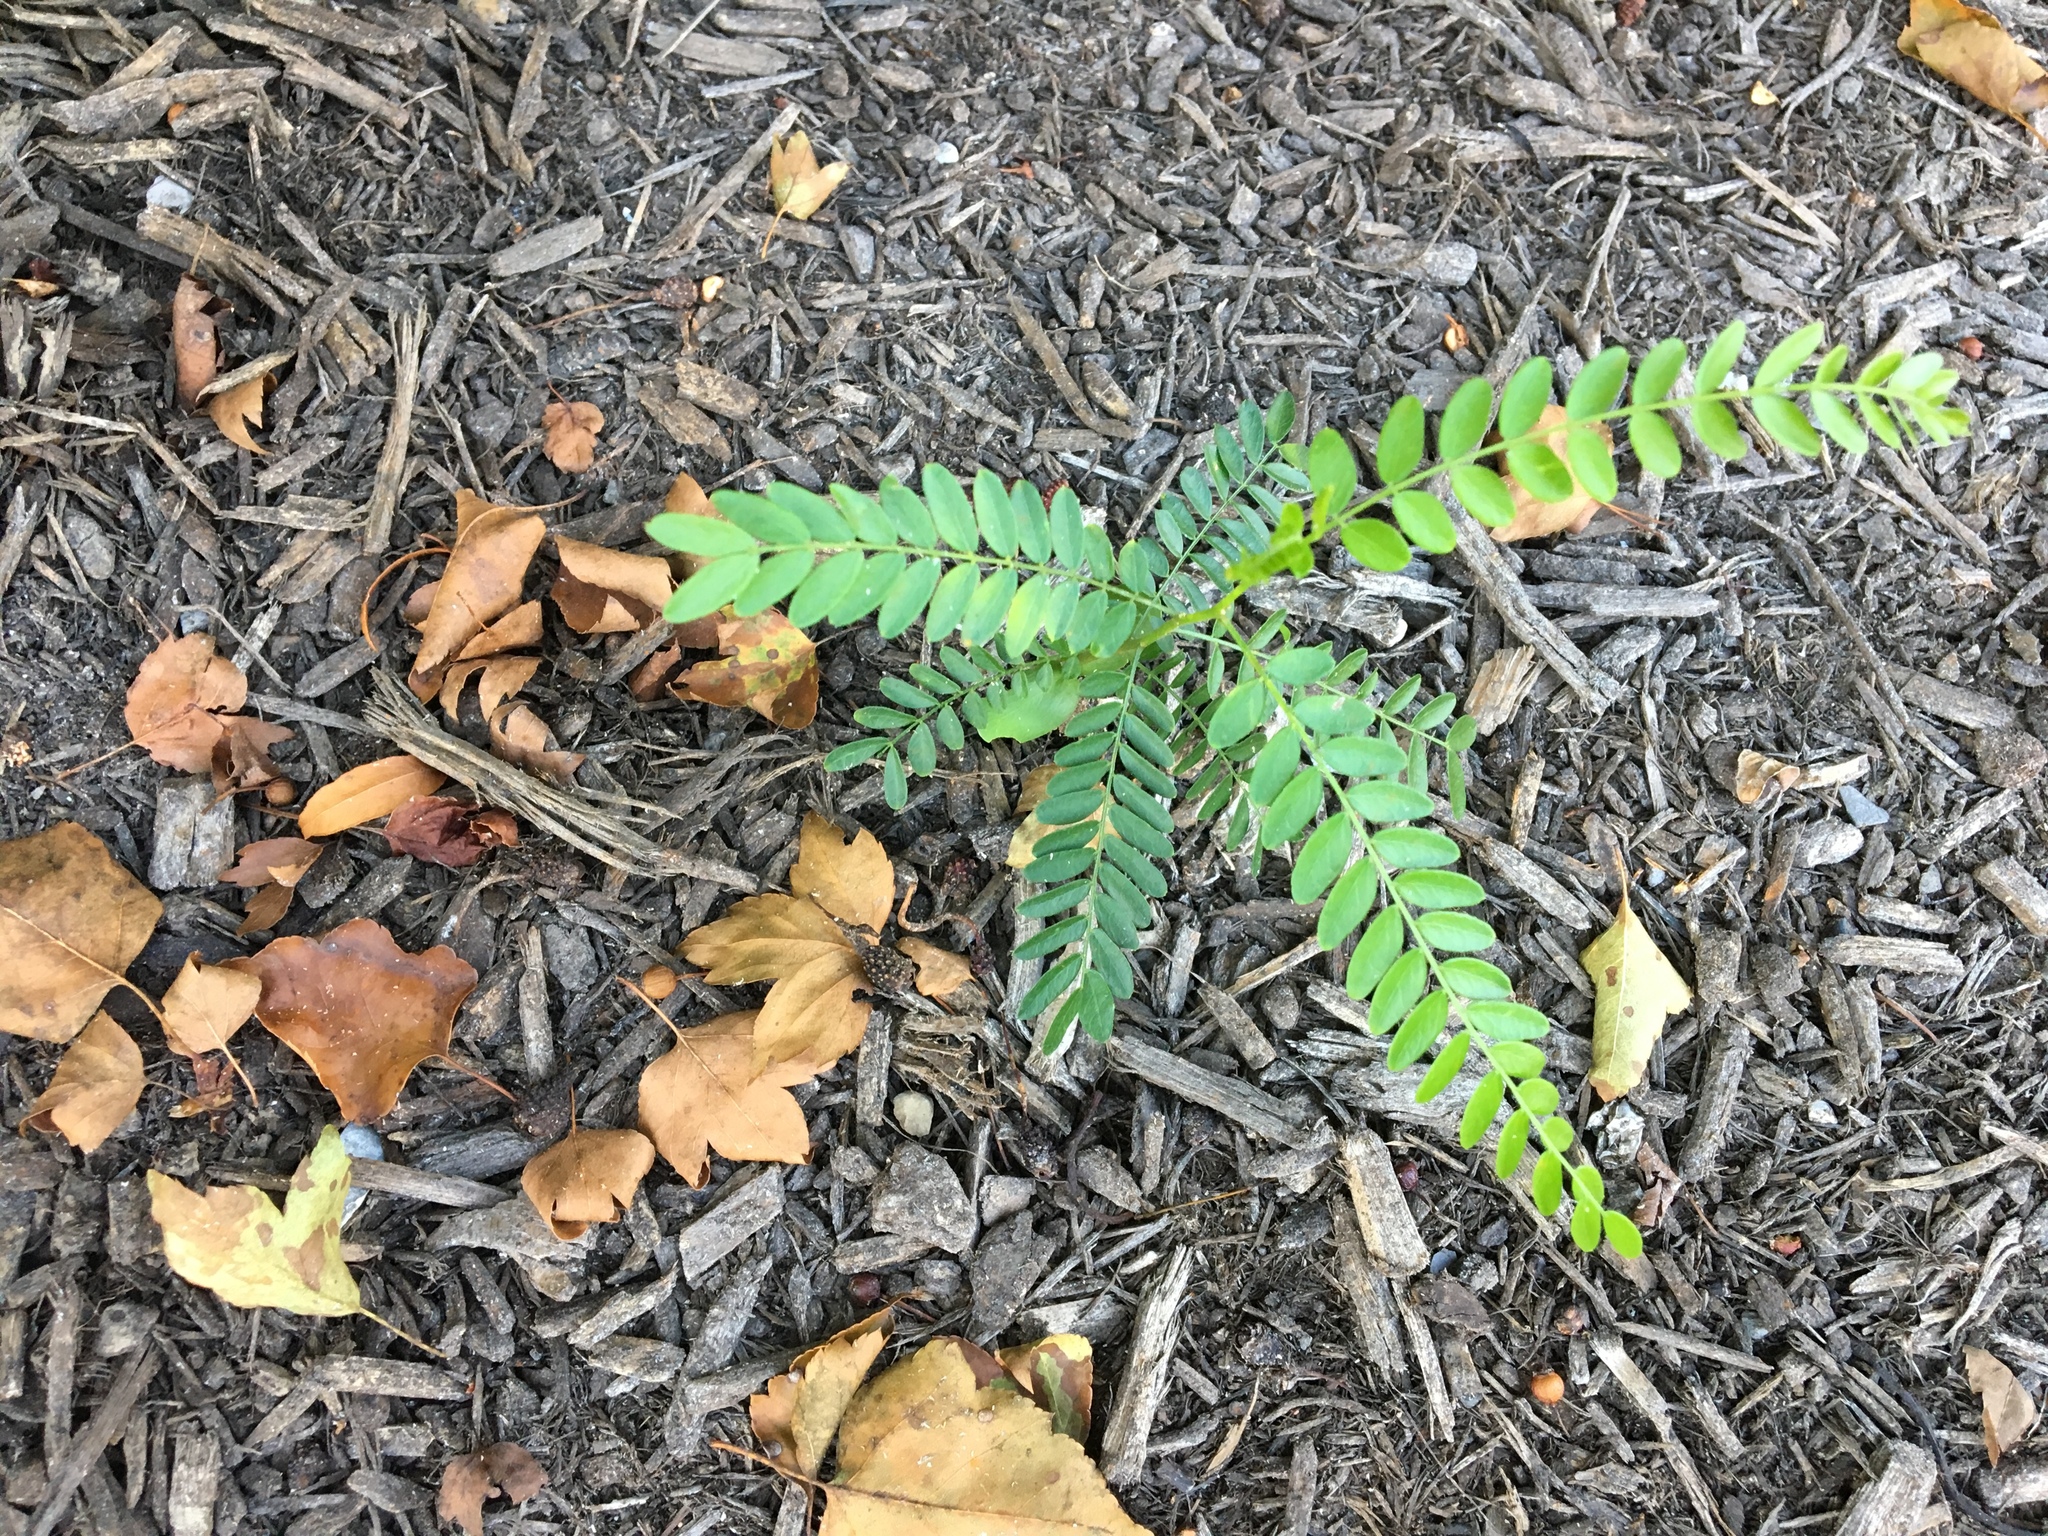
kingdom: Plantae
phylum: Tracheophyta
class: Magnoliopsida
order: Fabales
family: Fabaceae
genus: Gleditsia
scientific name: Gleditsia triacanthos
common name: Common honeylocust
